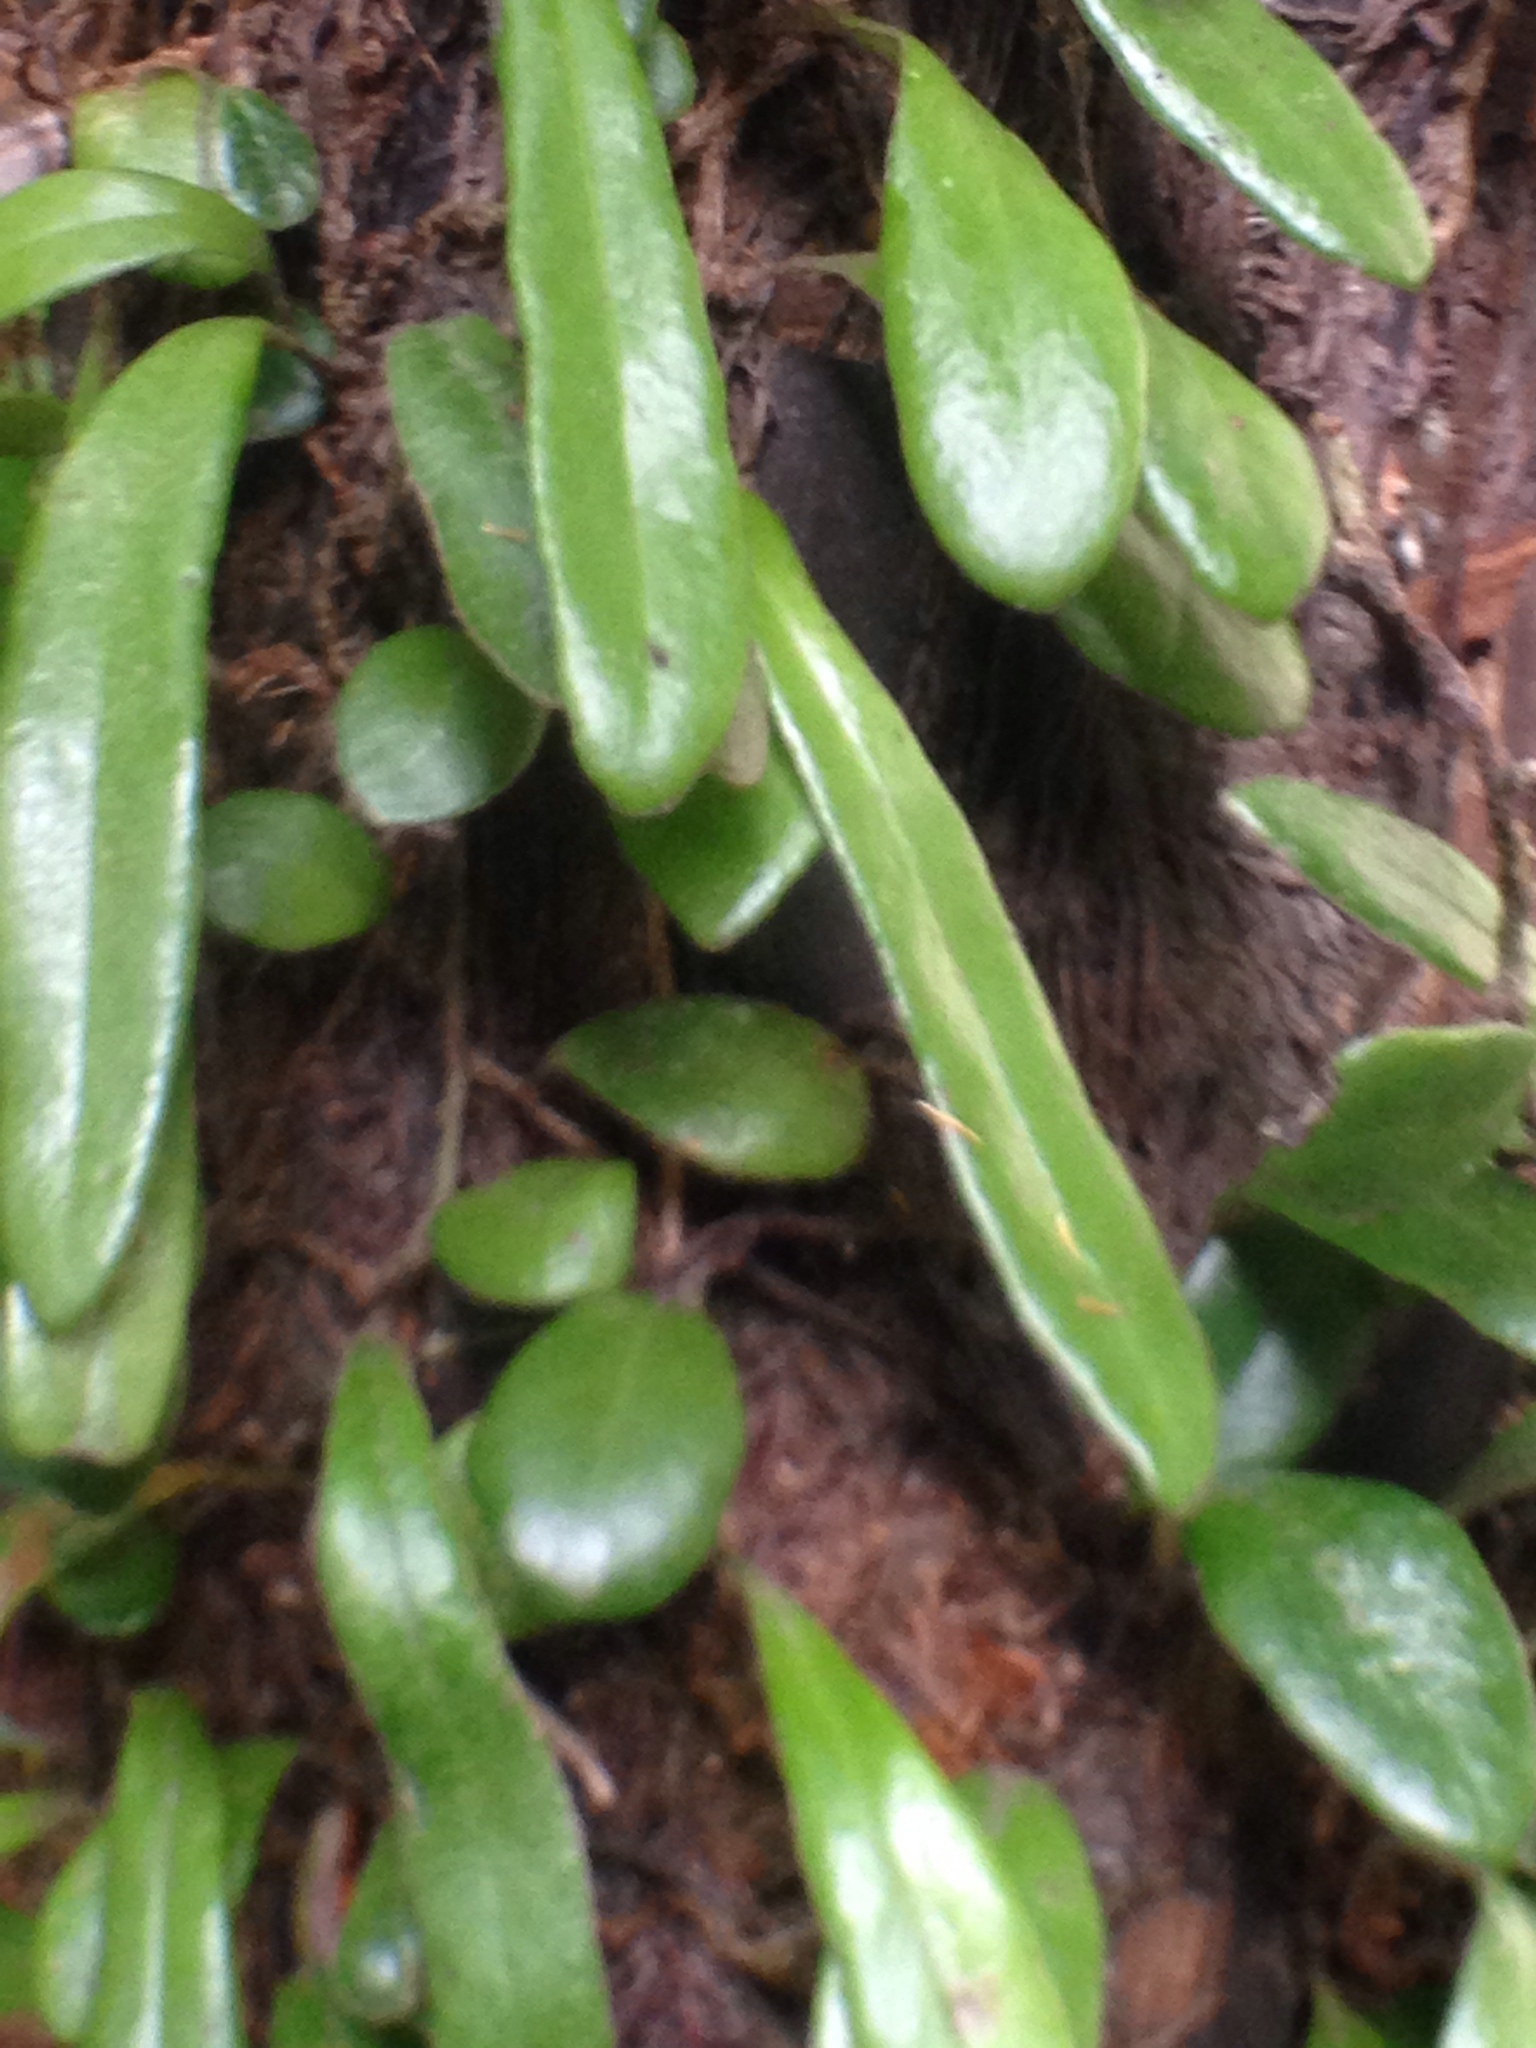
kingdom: Plantae
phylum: Tracheophyta
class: Polypodiopsida
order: Polypodiales
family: Polypodiaceae
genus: Pyrrosia
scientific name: Pyrrosia eleagnifolia
